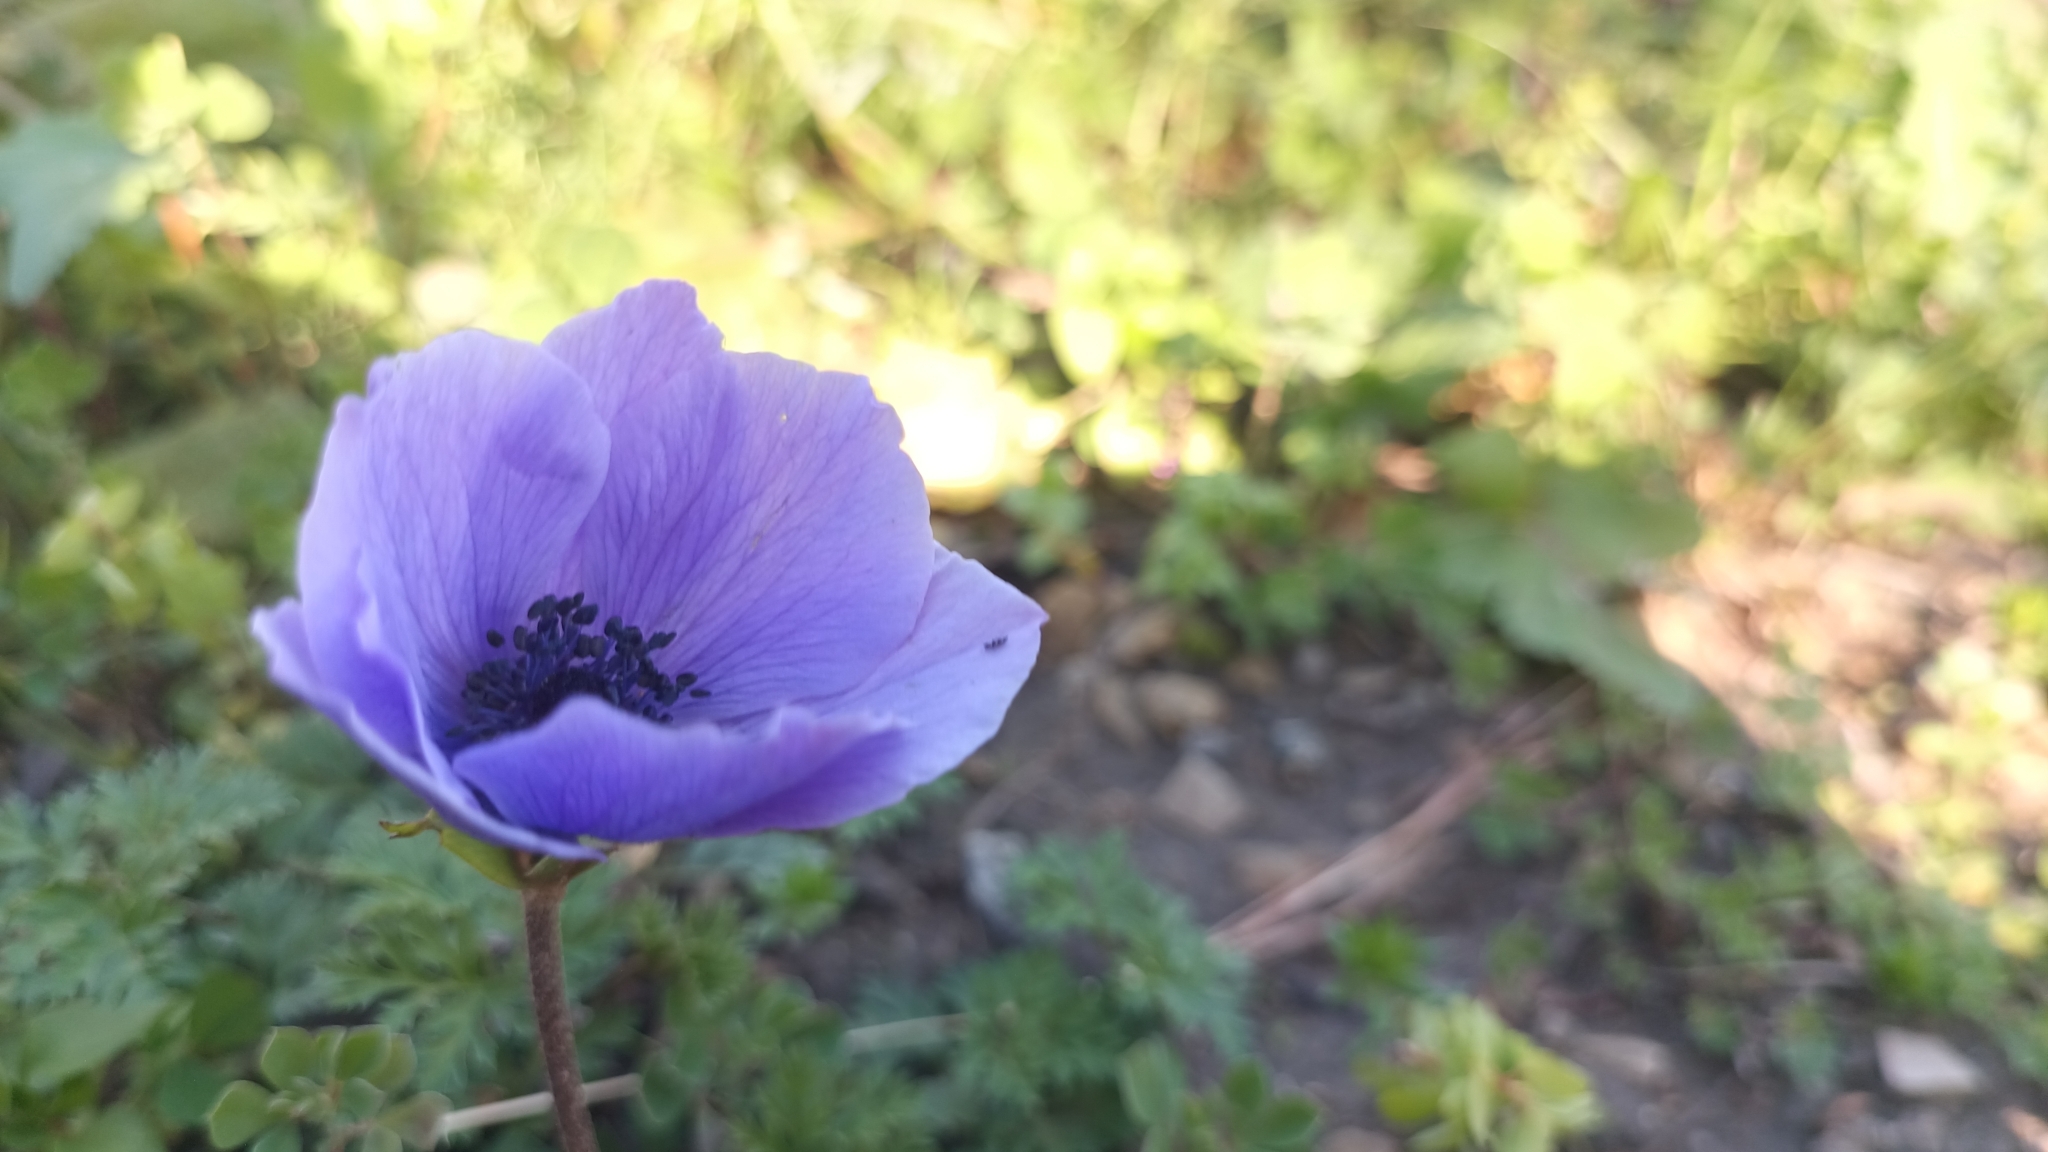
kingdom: Plantae
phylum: Tracheophyta
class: Magnoliopsida
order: Ranunculales
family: Ranunculaceae
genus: Anemone
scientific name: Anemone coronaria
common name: Poppy anemone
